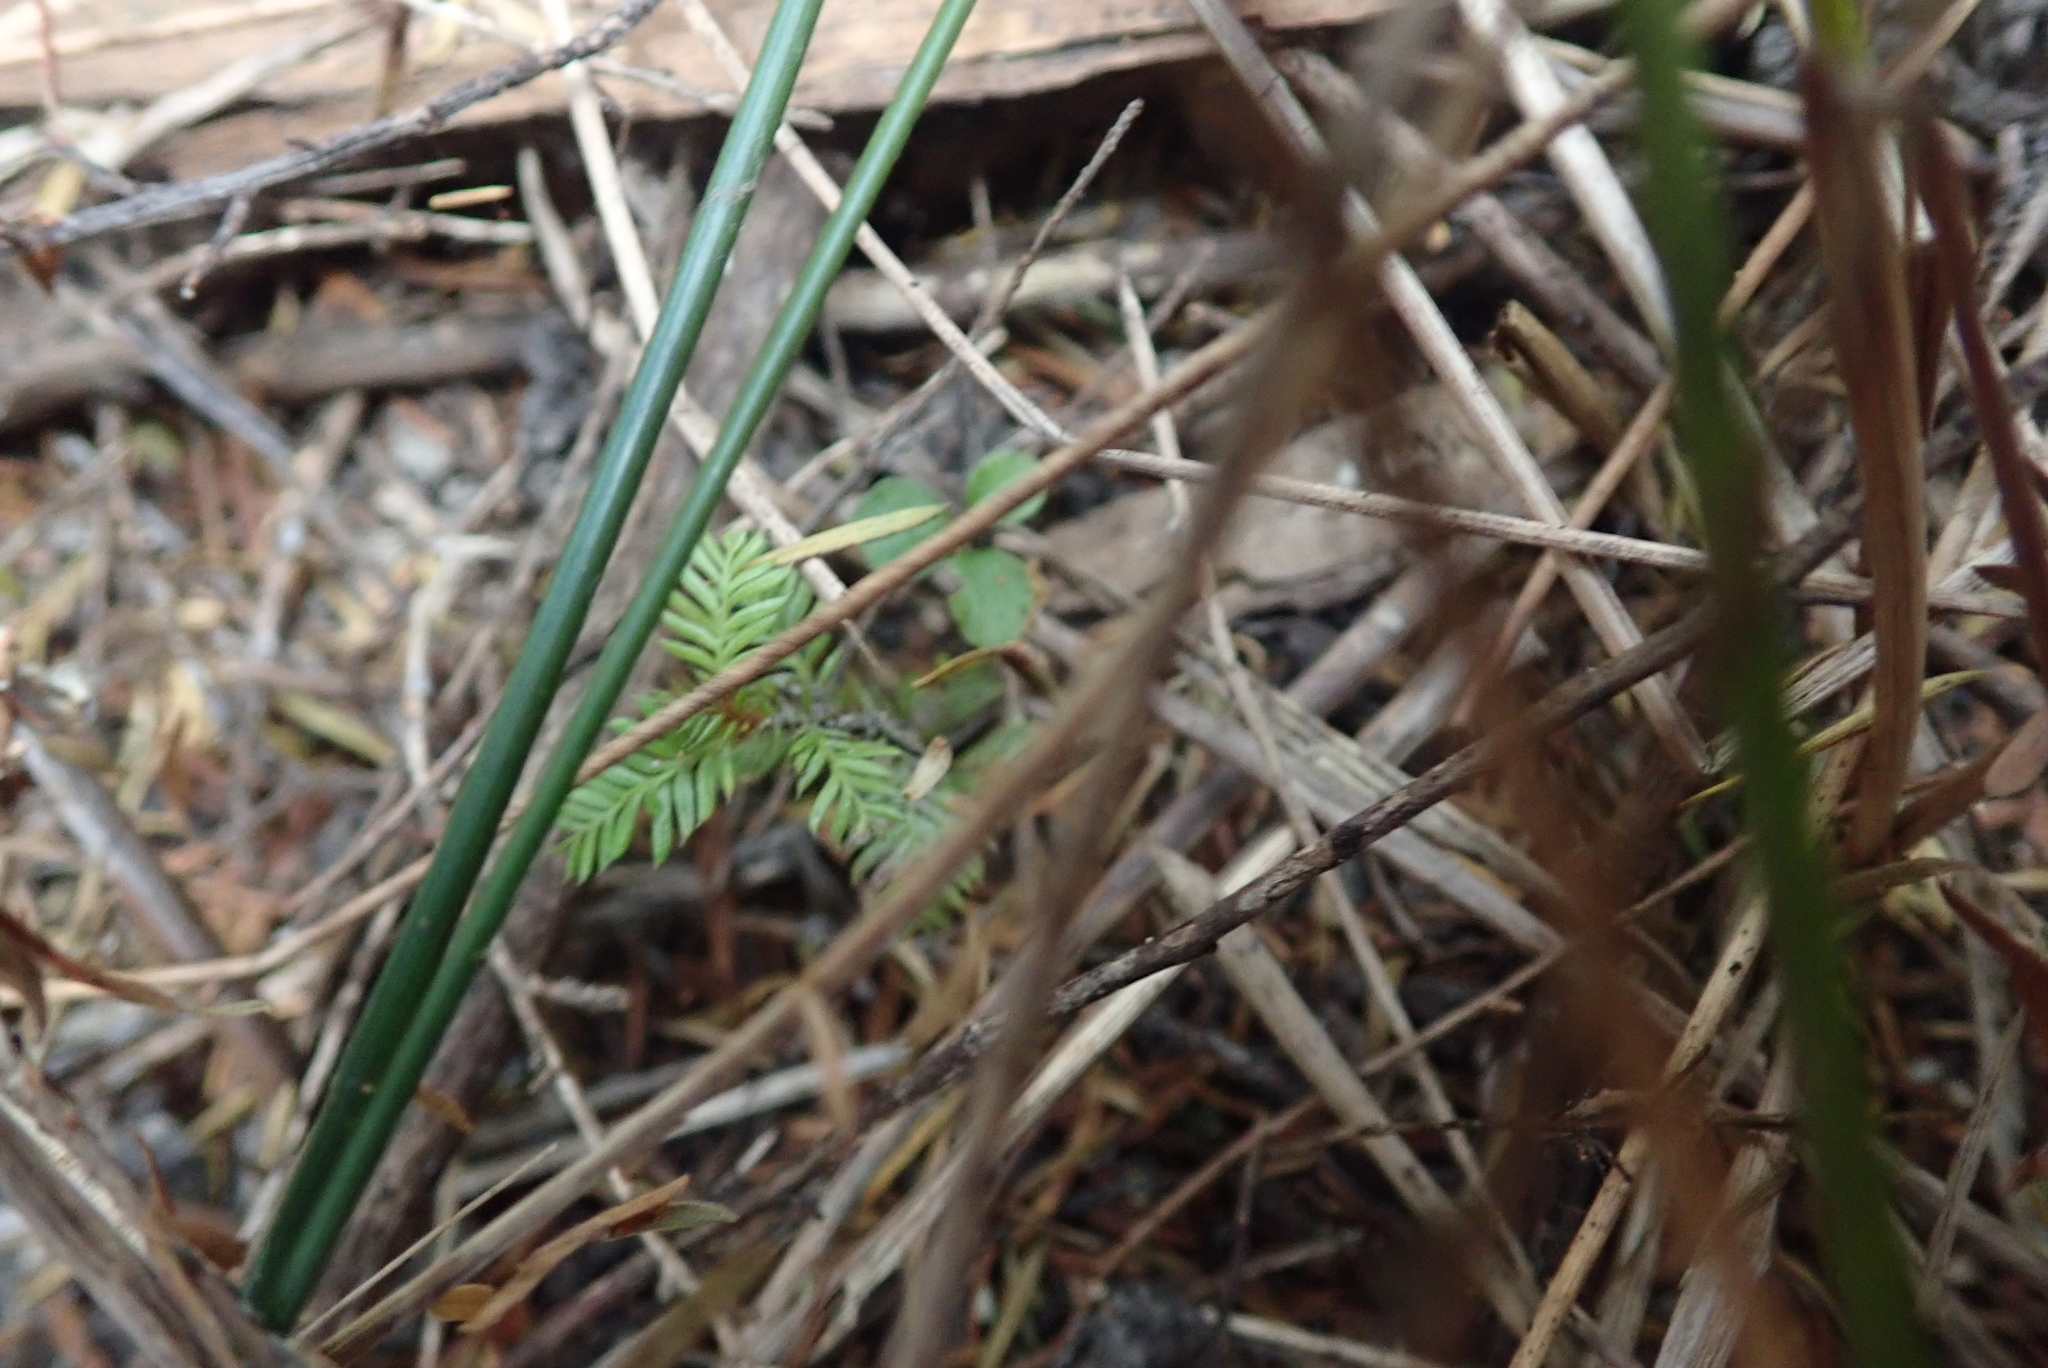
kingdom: Plantae
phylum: Tracheophyta
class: Pinopsida
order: Pinales
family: Podocarpaceae
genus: Dacrycarpus
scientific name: Dacrycarpus dacrydioides
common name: White pine
